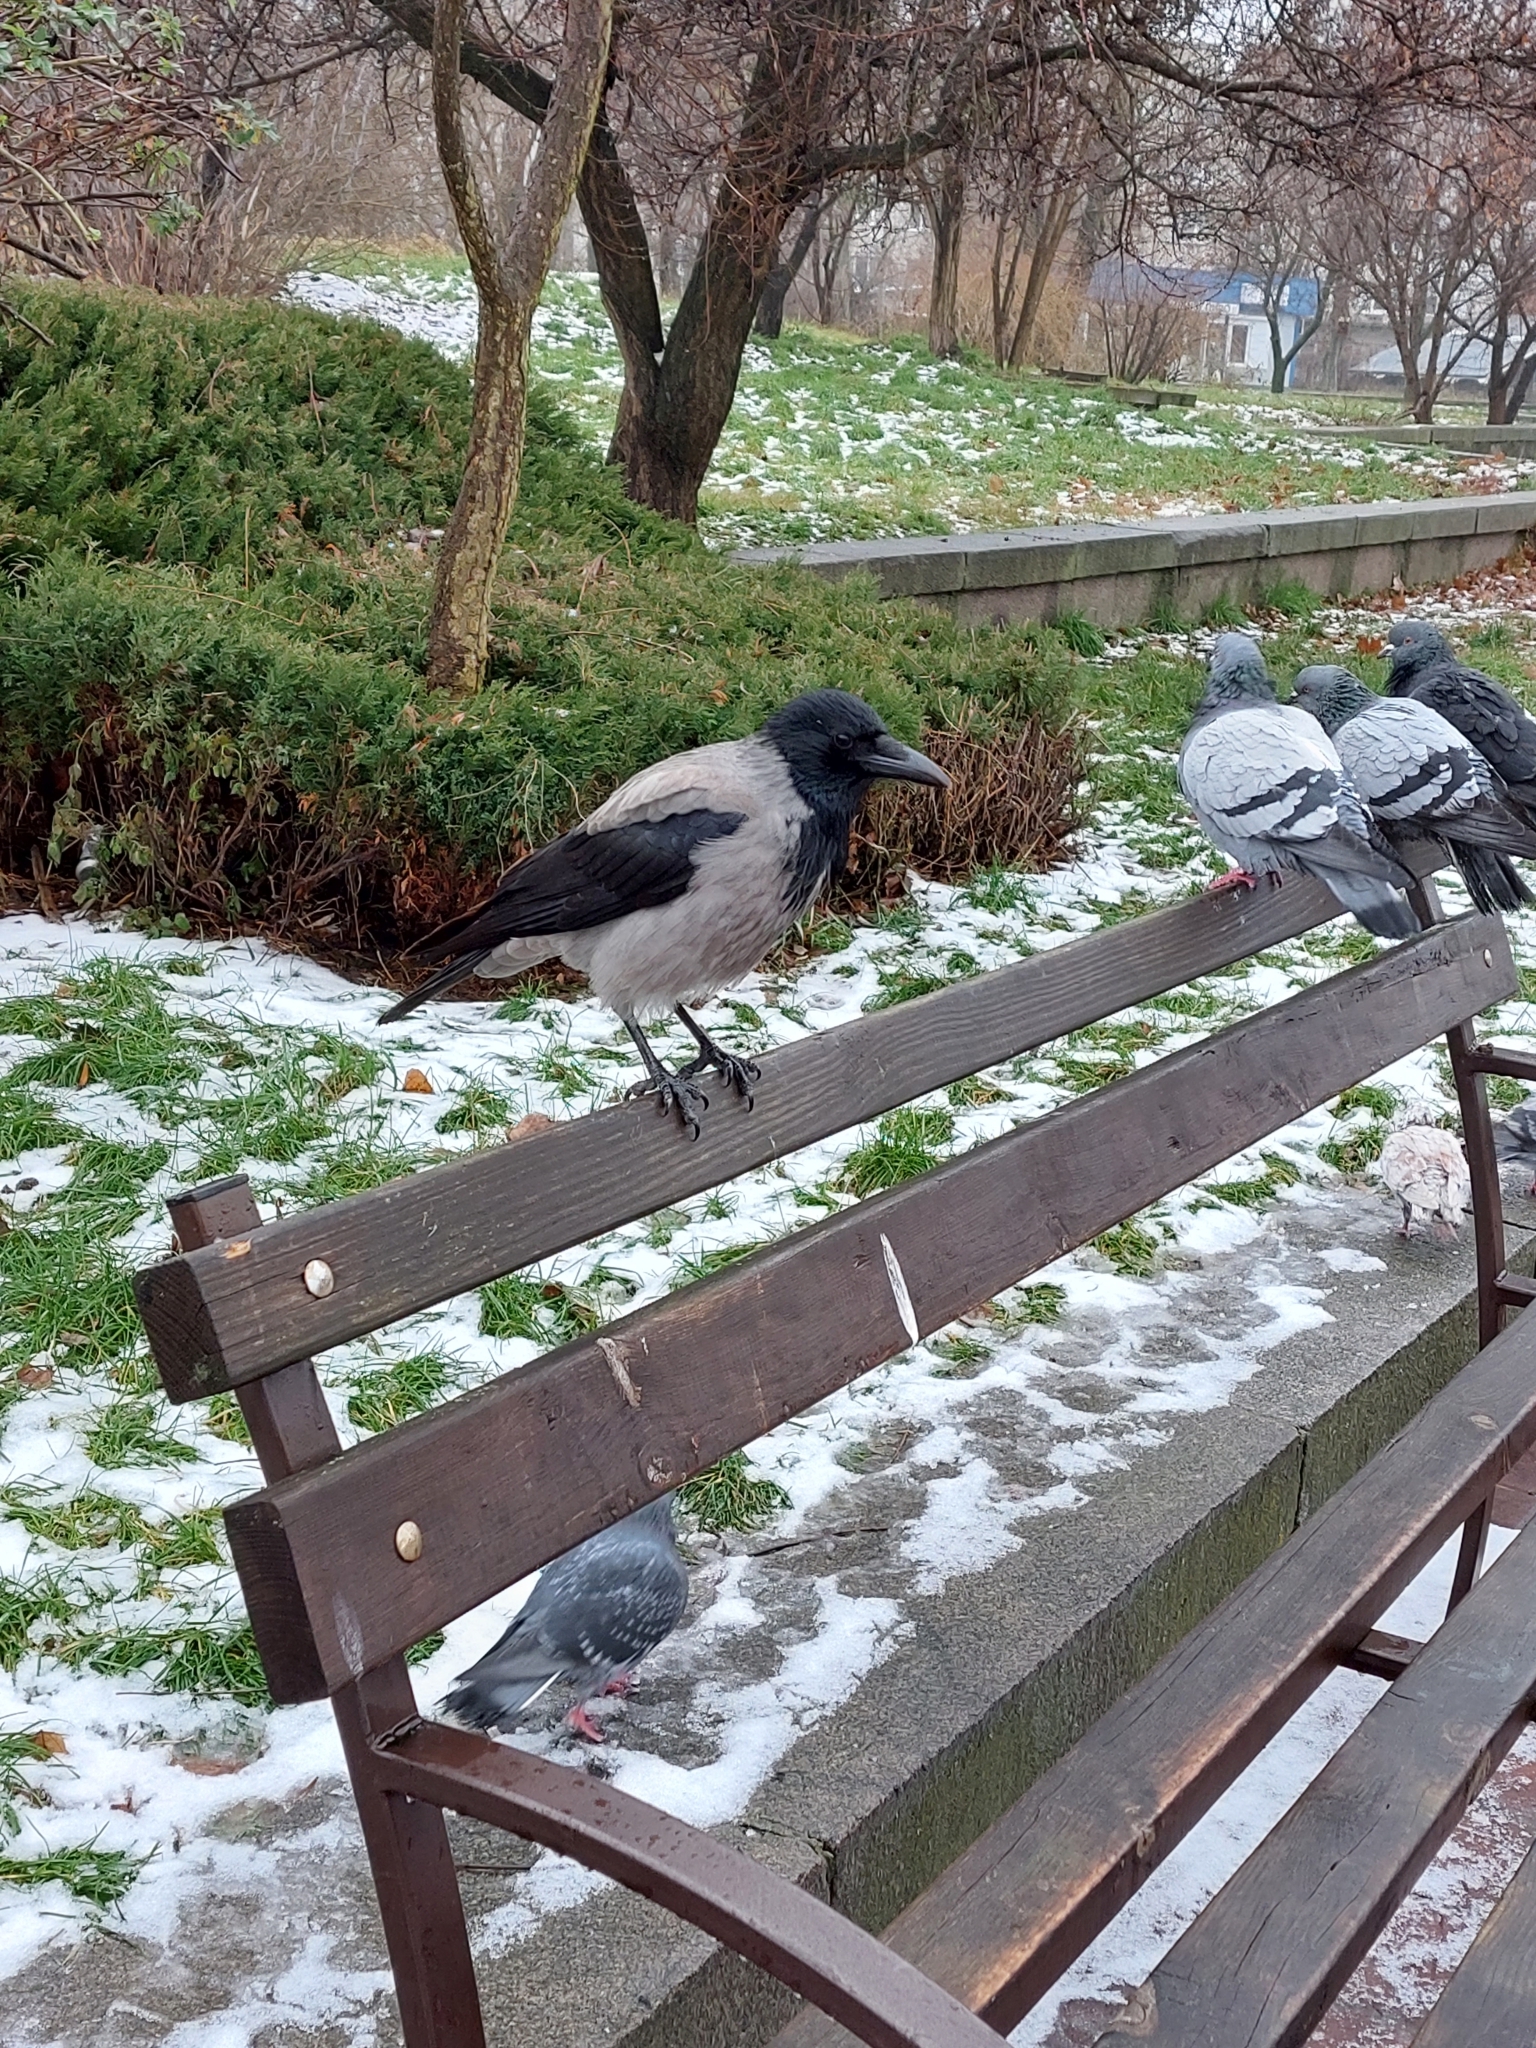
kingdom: Animalia
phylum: Chordata
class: Aves
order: Passeriformes
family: Corvidae
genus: Corvus
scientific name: Corvus cornix
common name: Hooded crow
